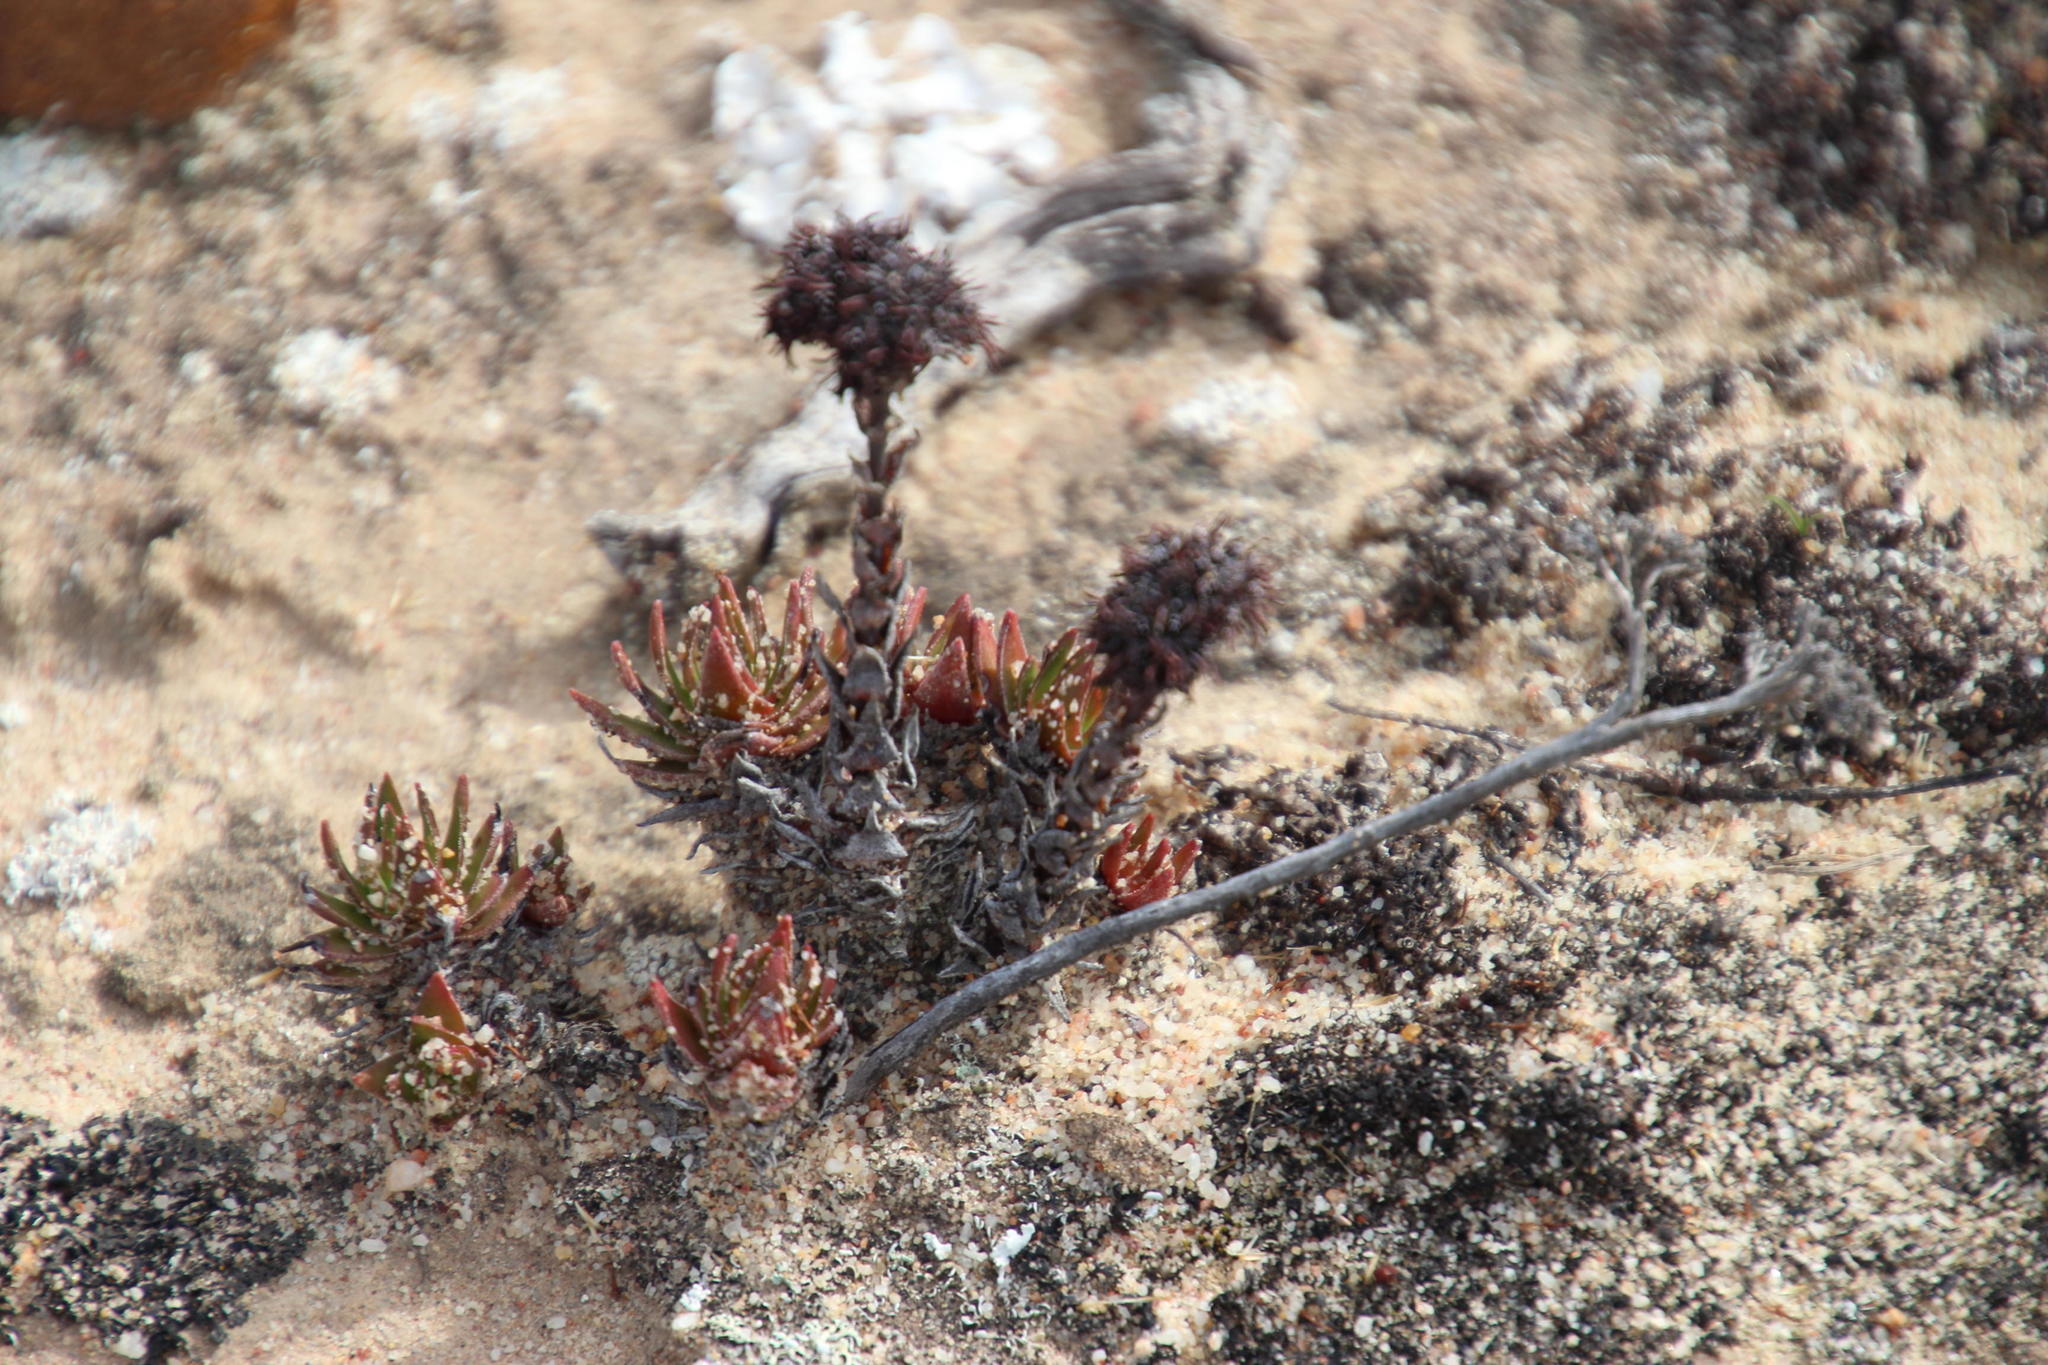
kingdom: Plantae
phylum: Tracheophyta
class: Magnoliopsida
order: Saxifragales
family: Crassulaceae
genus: Crassula
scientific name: Crassula alpestris
